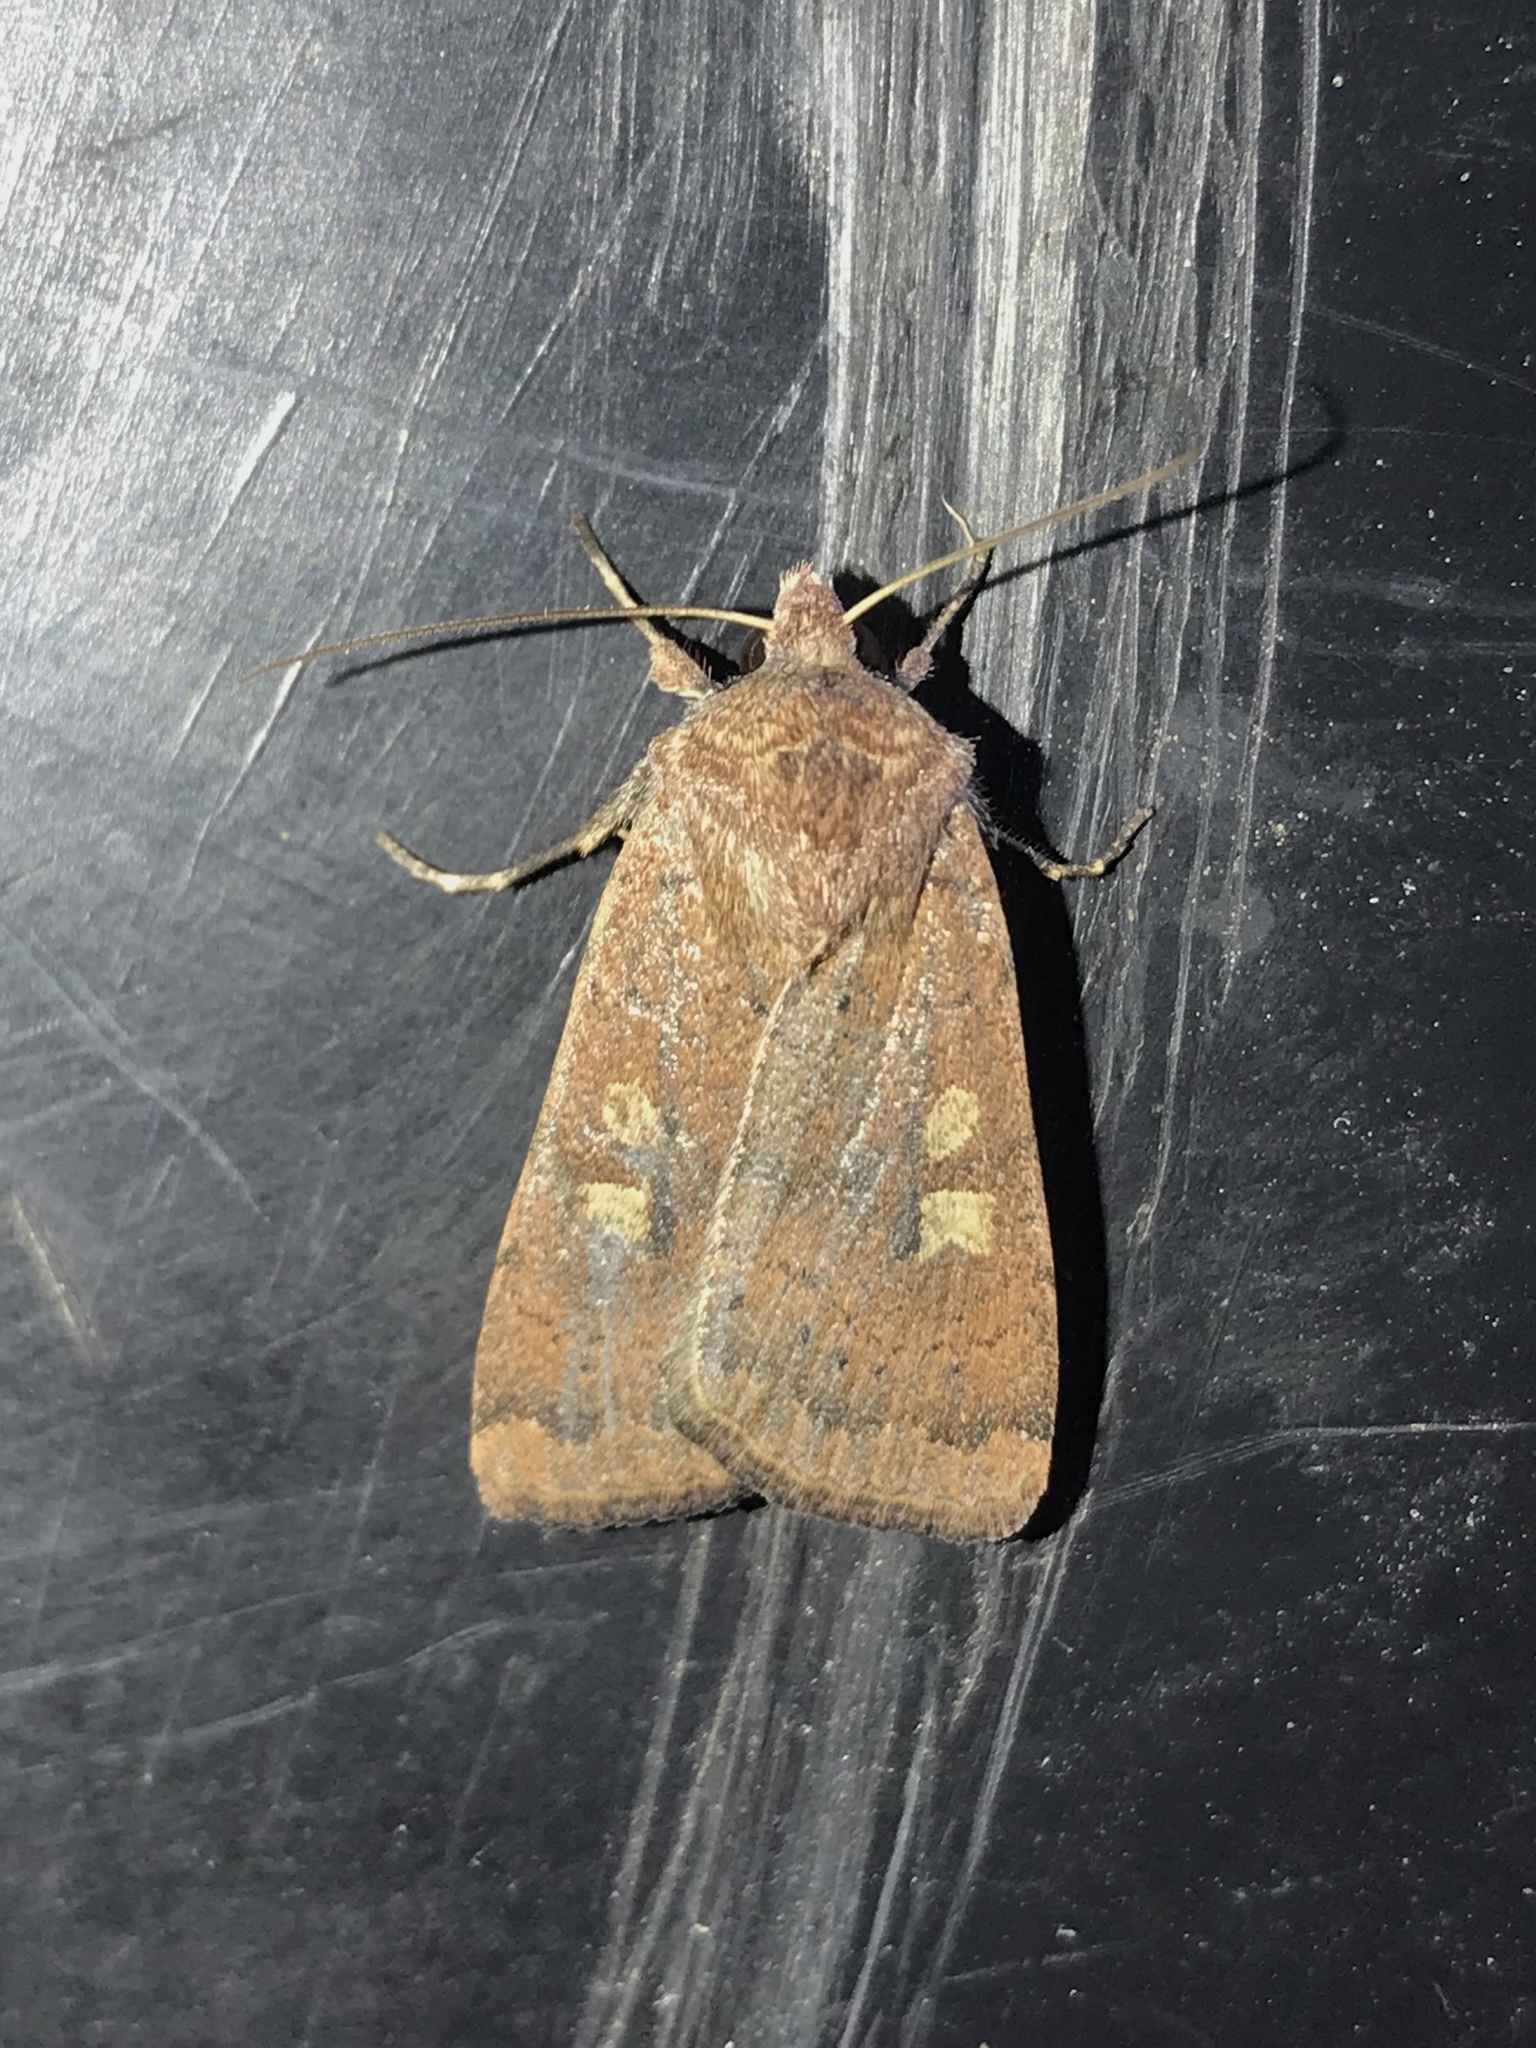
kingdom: Animalia
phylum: Arthropoda
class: Insecta
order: Lepidoptera
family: Noctuidae
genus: Xestia
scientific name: Xestia xanthographa
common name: Square-spot rustic
